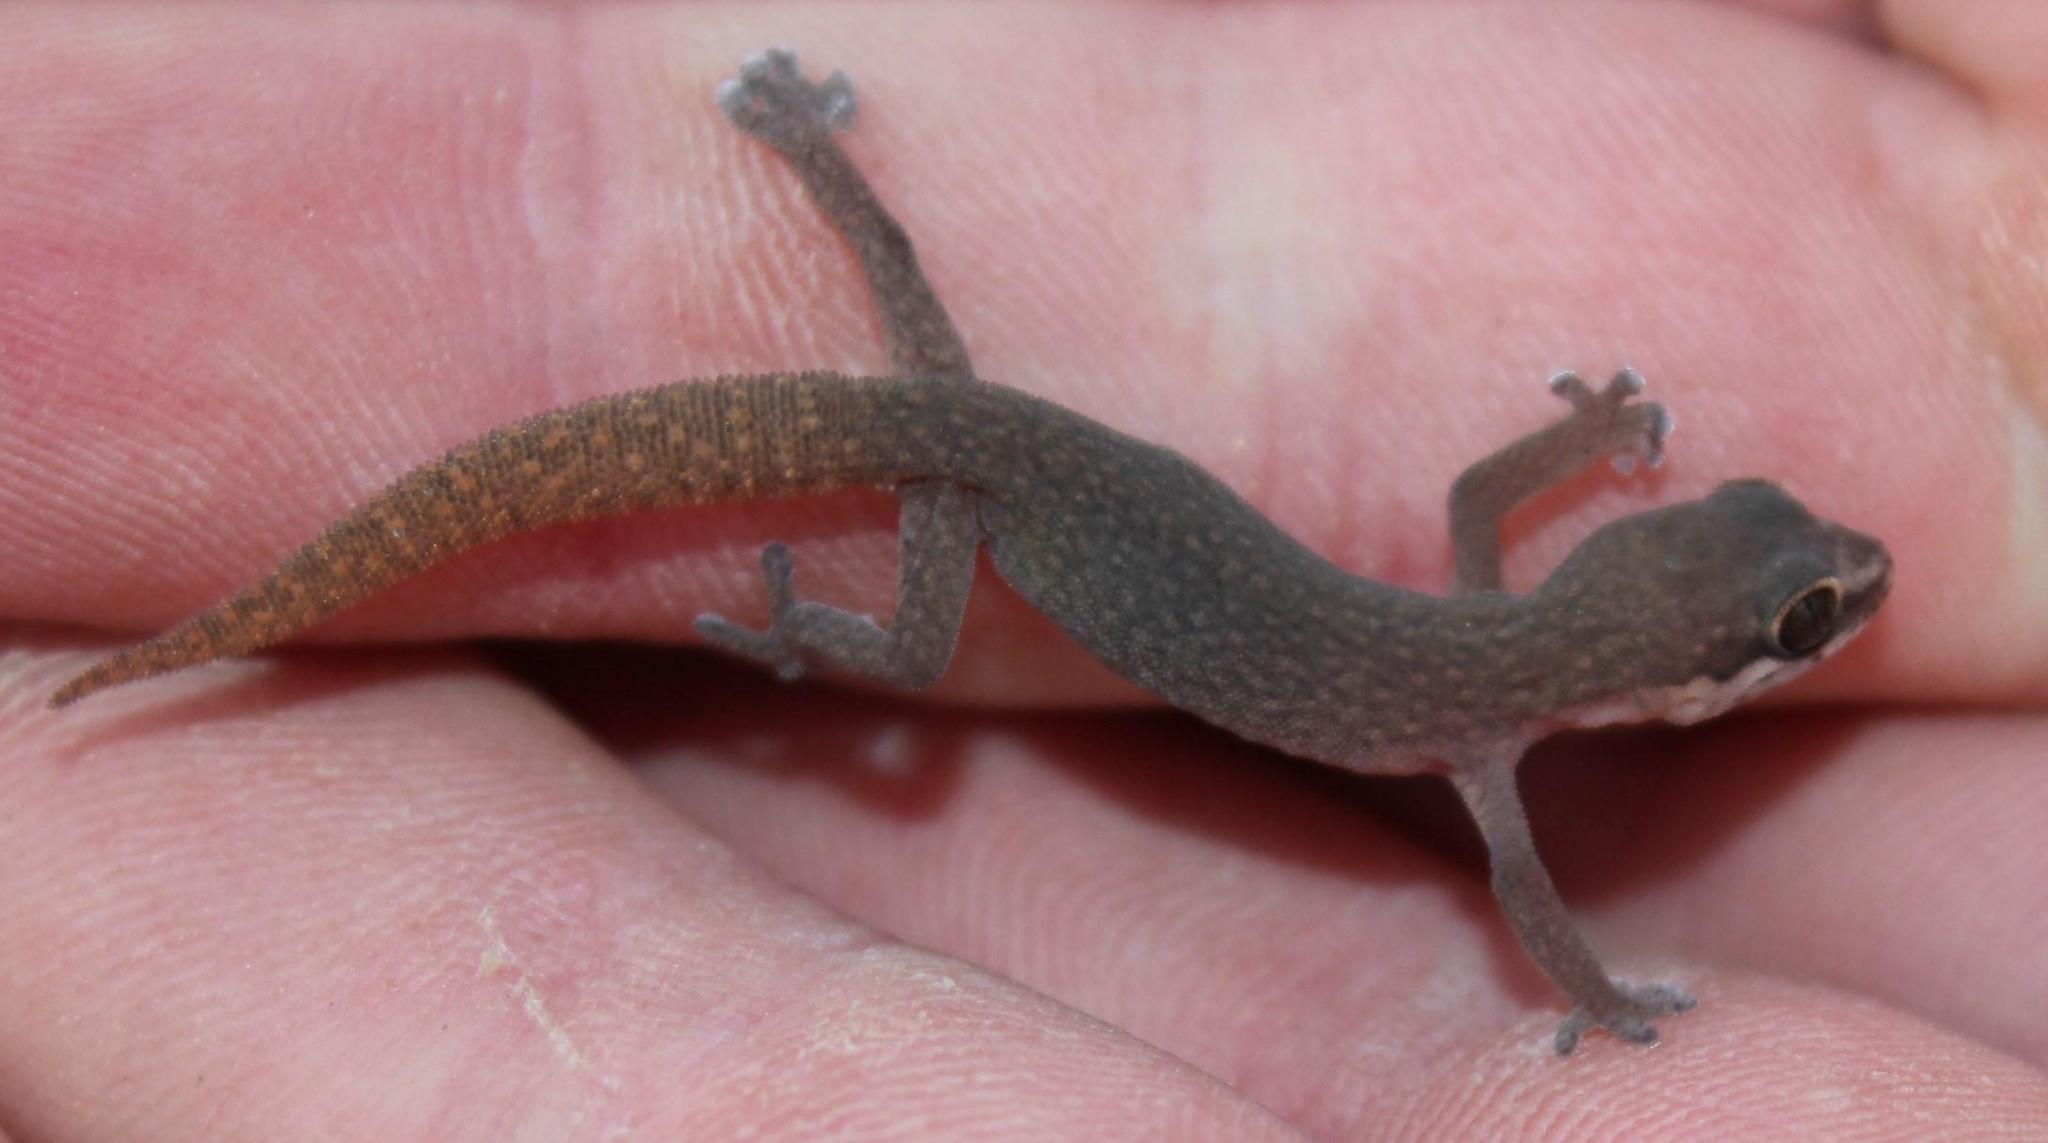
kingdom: Animalia
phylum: Chordata
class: Squamata
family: Gekkonidae
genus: Pachydactylus
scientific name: Pachydactylus geitje
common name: Ocellated thick-toed gecko
